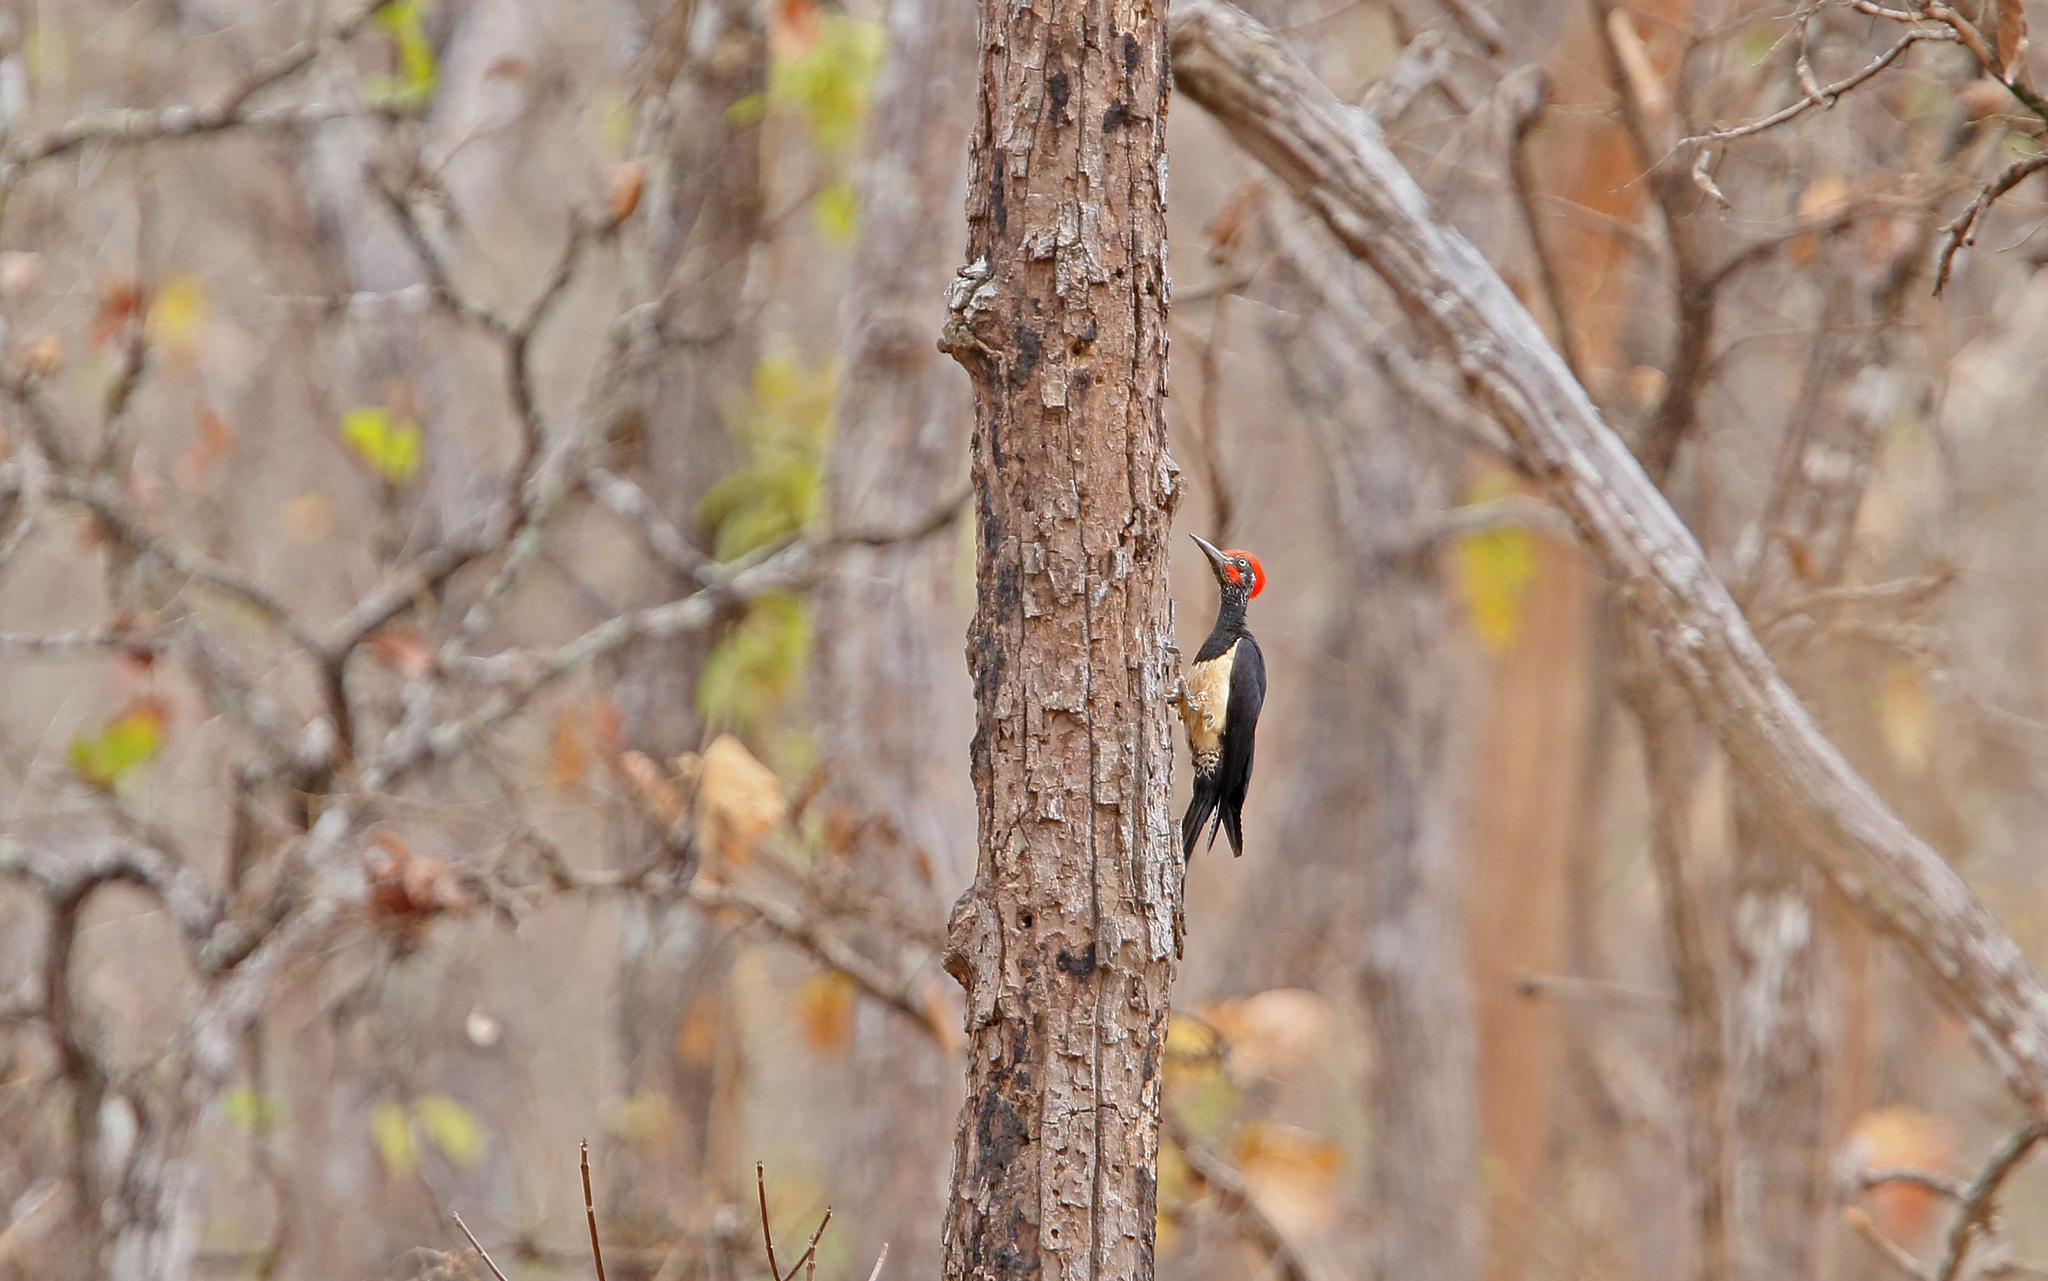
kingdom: Animalia
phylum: Chordata
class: Aves
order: Piciformes
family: Picidae
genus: Dryocopus
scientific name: Dryocopus javensis
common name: White-bellied woodpecker
